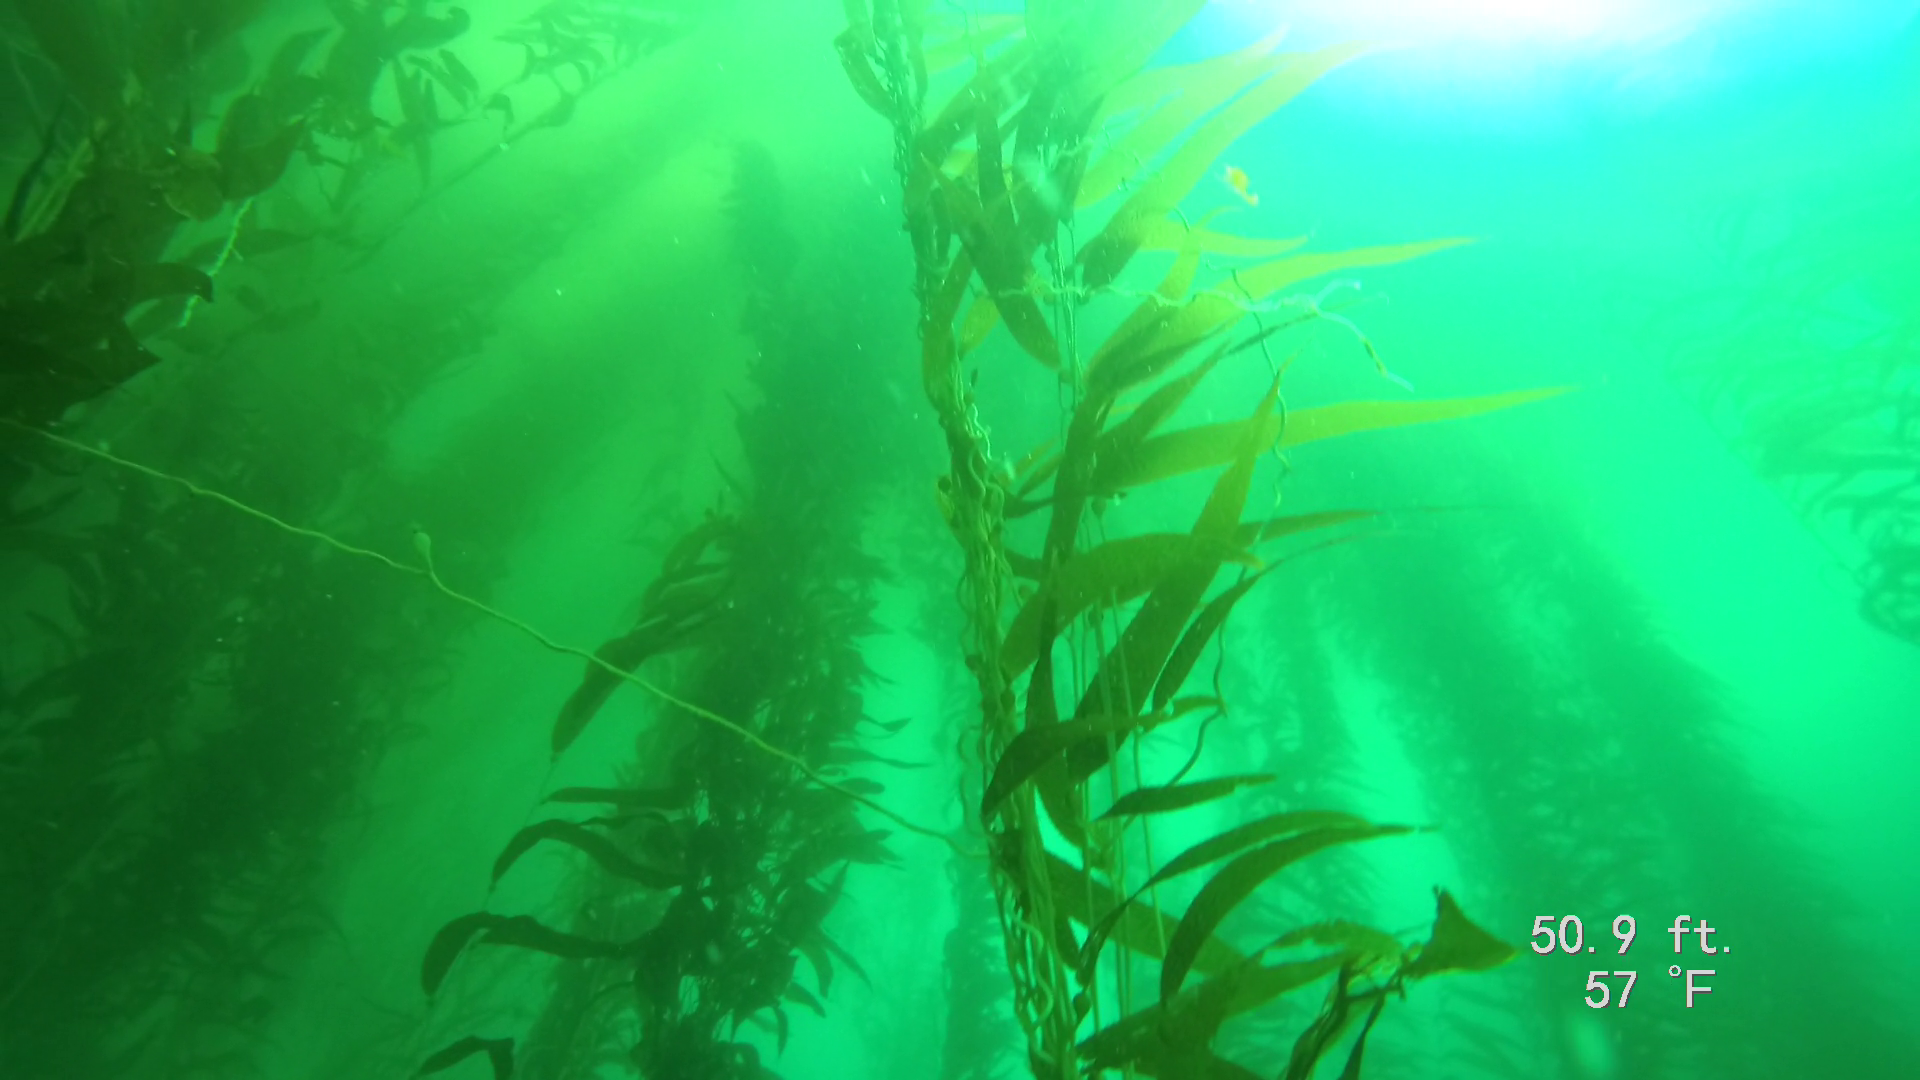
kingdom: Chromista
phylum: Ochrophyta
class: Phaeophyceae
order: Laminariales
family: Laminariaceae
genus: Macrocystis
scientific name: Macrocystis pyrifera
